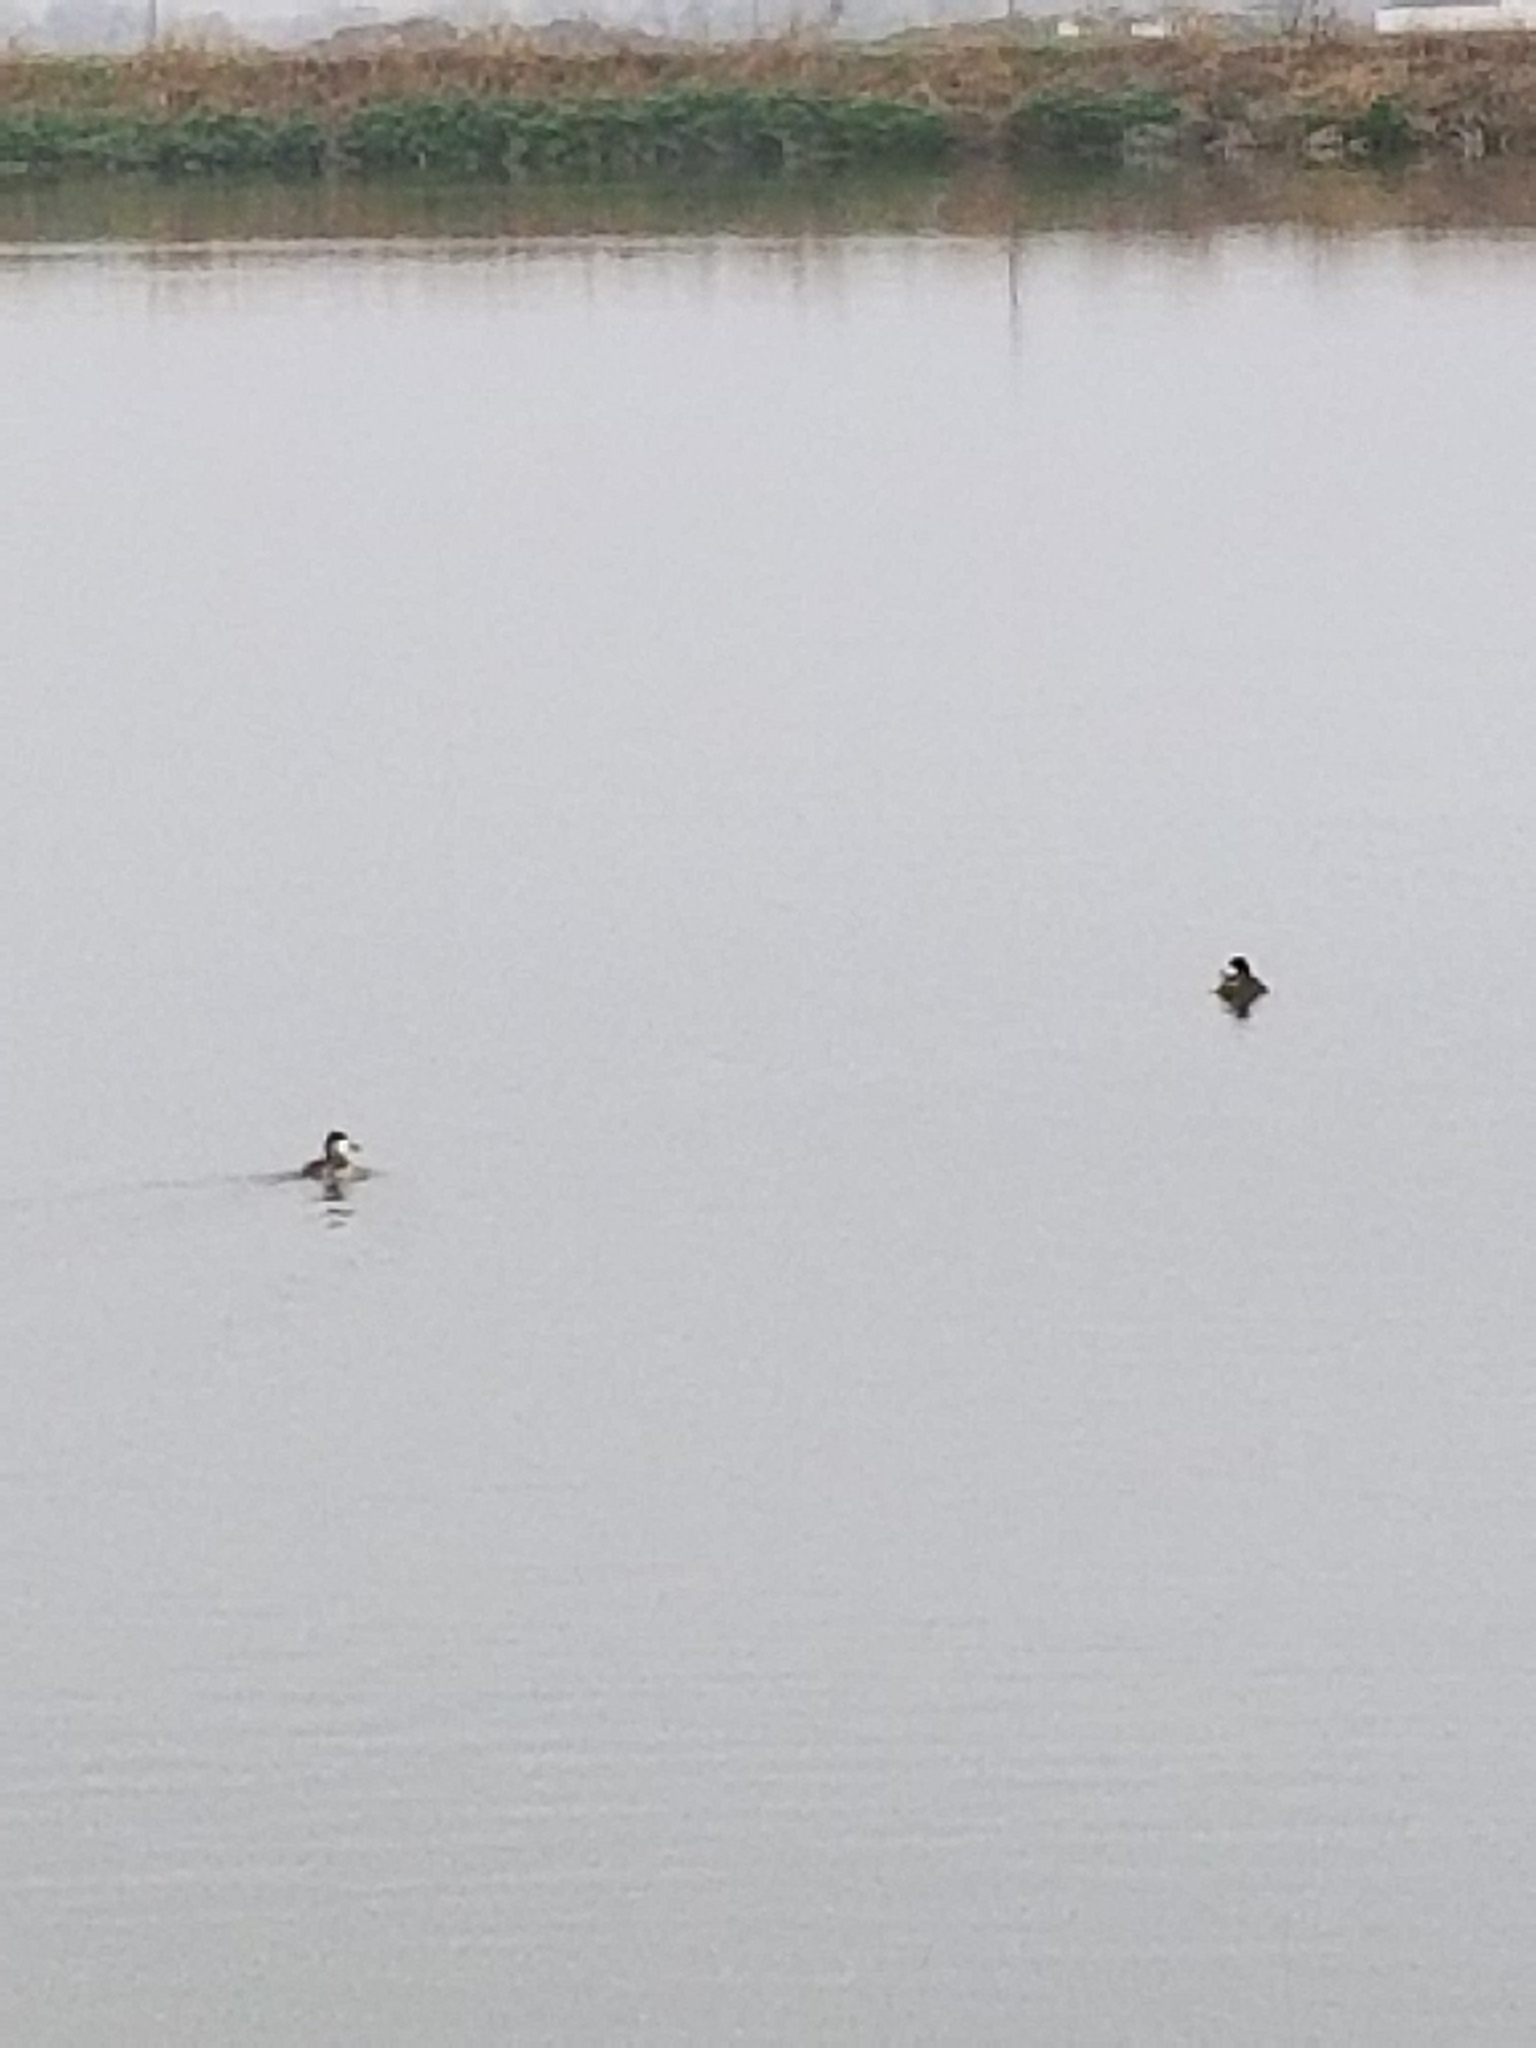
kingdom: Animalia
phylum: Chordata
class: Aves
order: Anseriformes
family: Anatidae
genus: Oxyura
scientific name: Oxyura jamaicensis
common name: Ruddy duck
